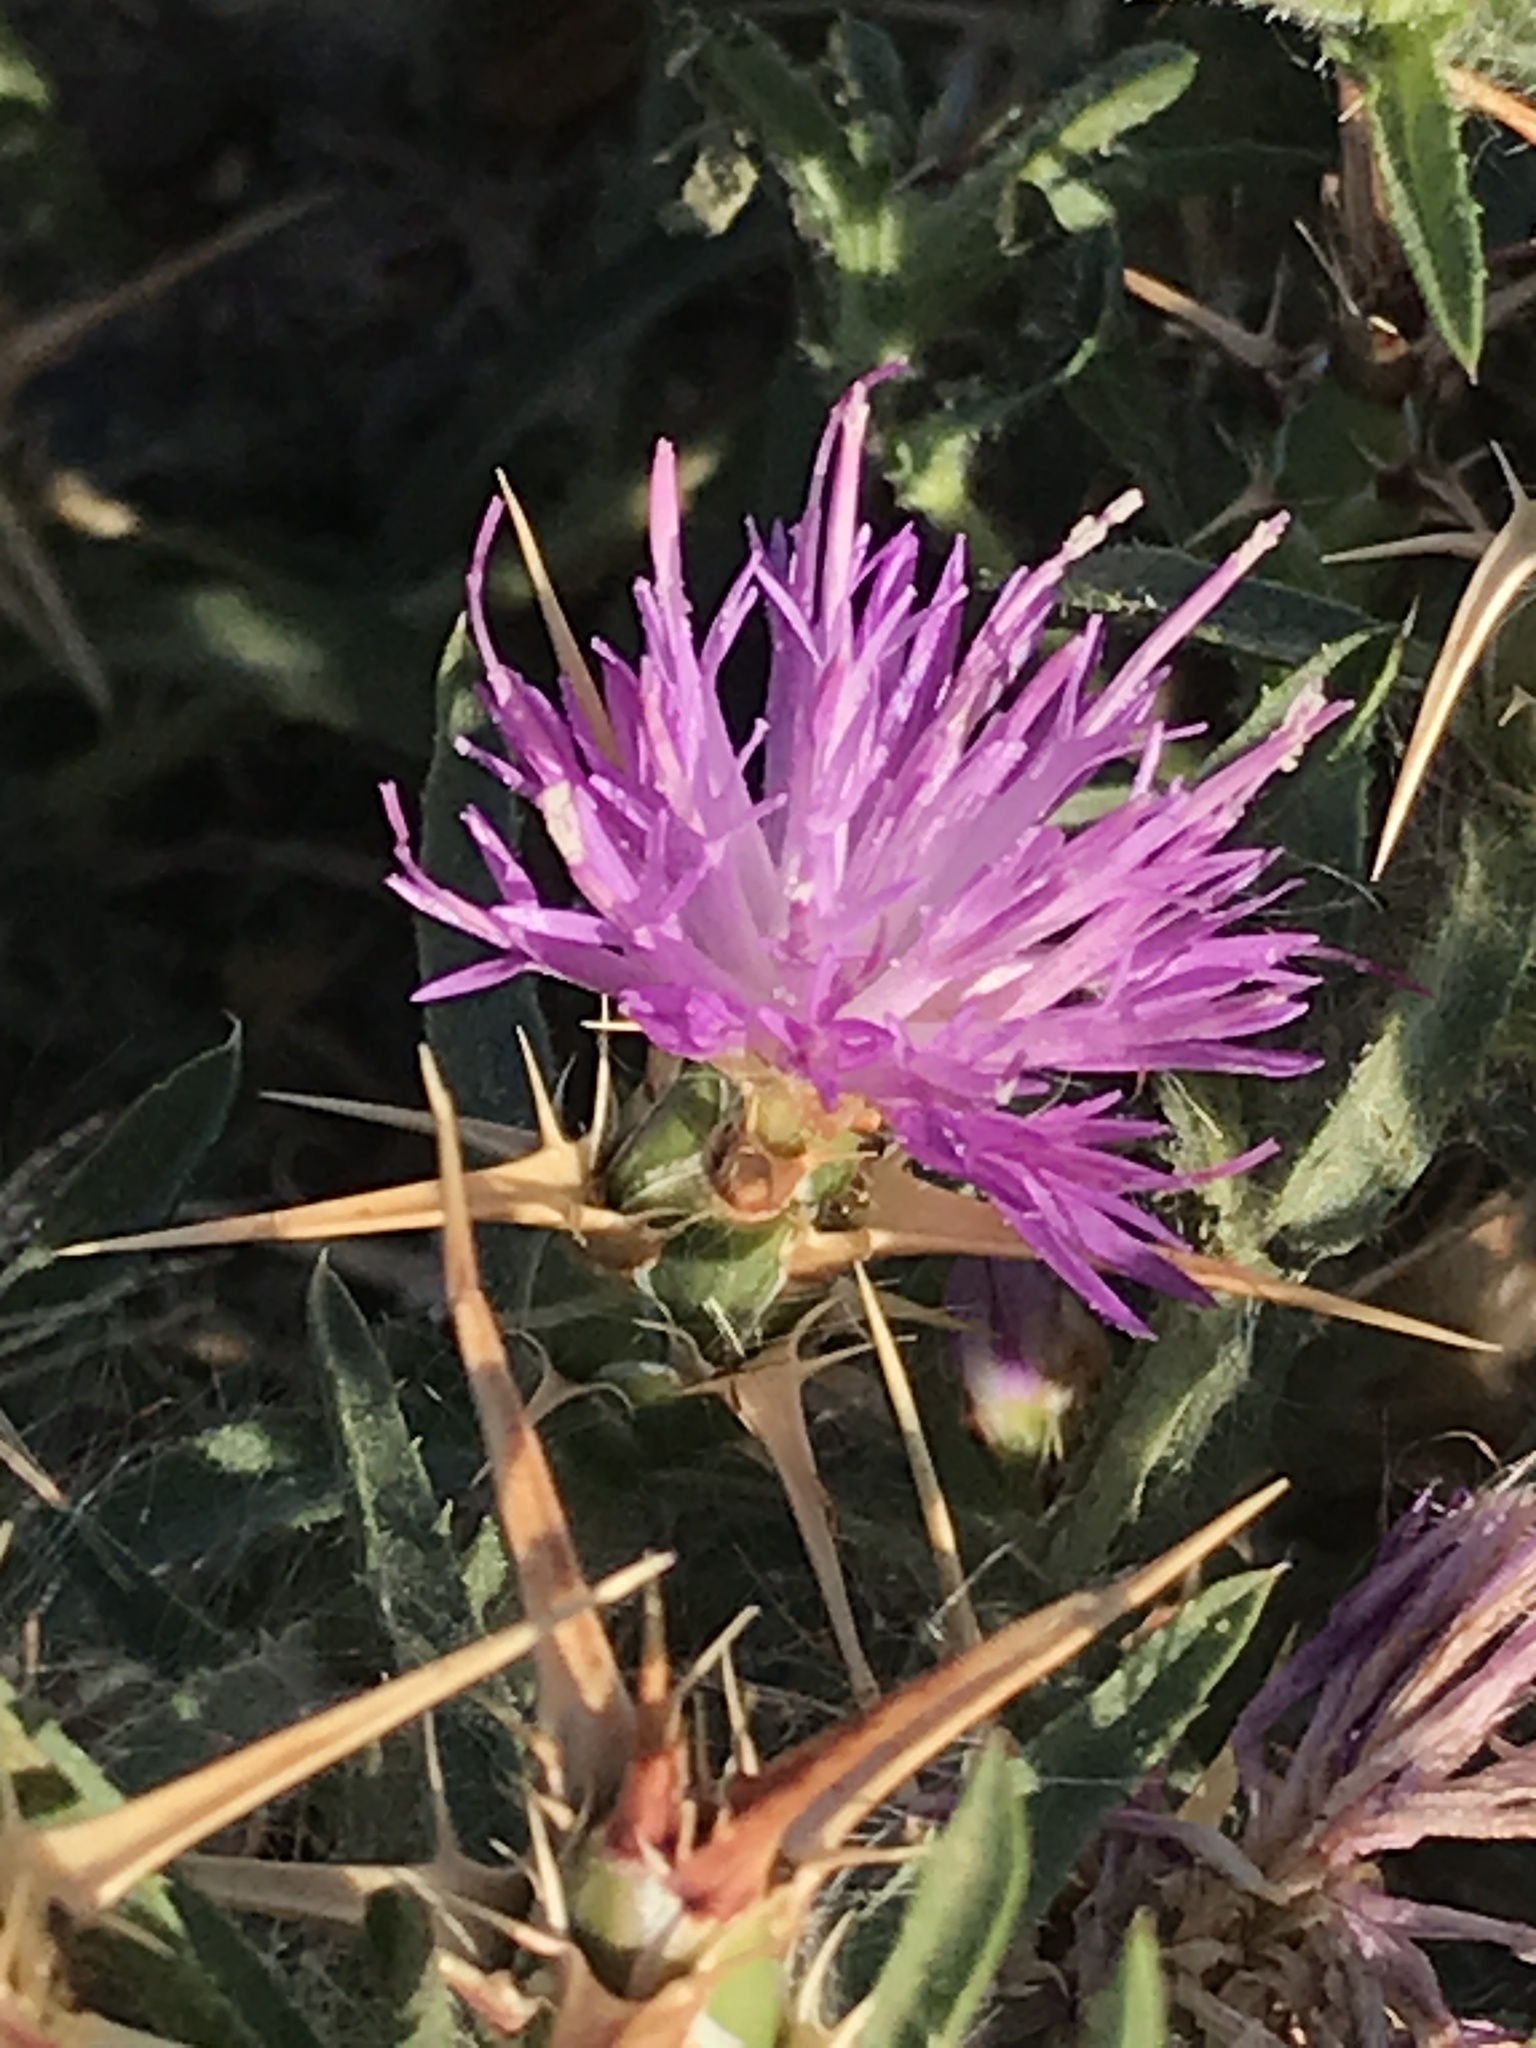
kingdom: Plantae
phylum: Tracheophyta
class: Magnoliopsida
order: Asterales
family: Asteraceae
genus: Centaurea
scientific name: Centaurea calcitrapa
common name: Red star-thistle
